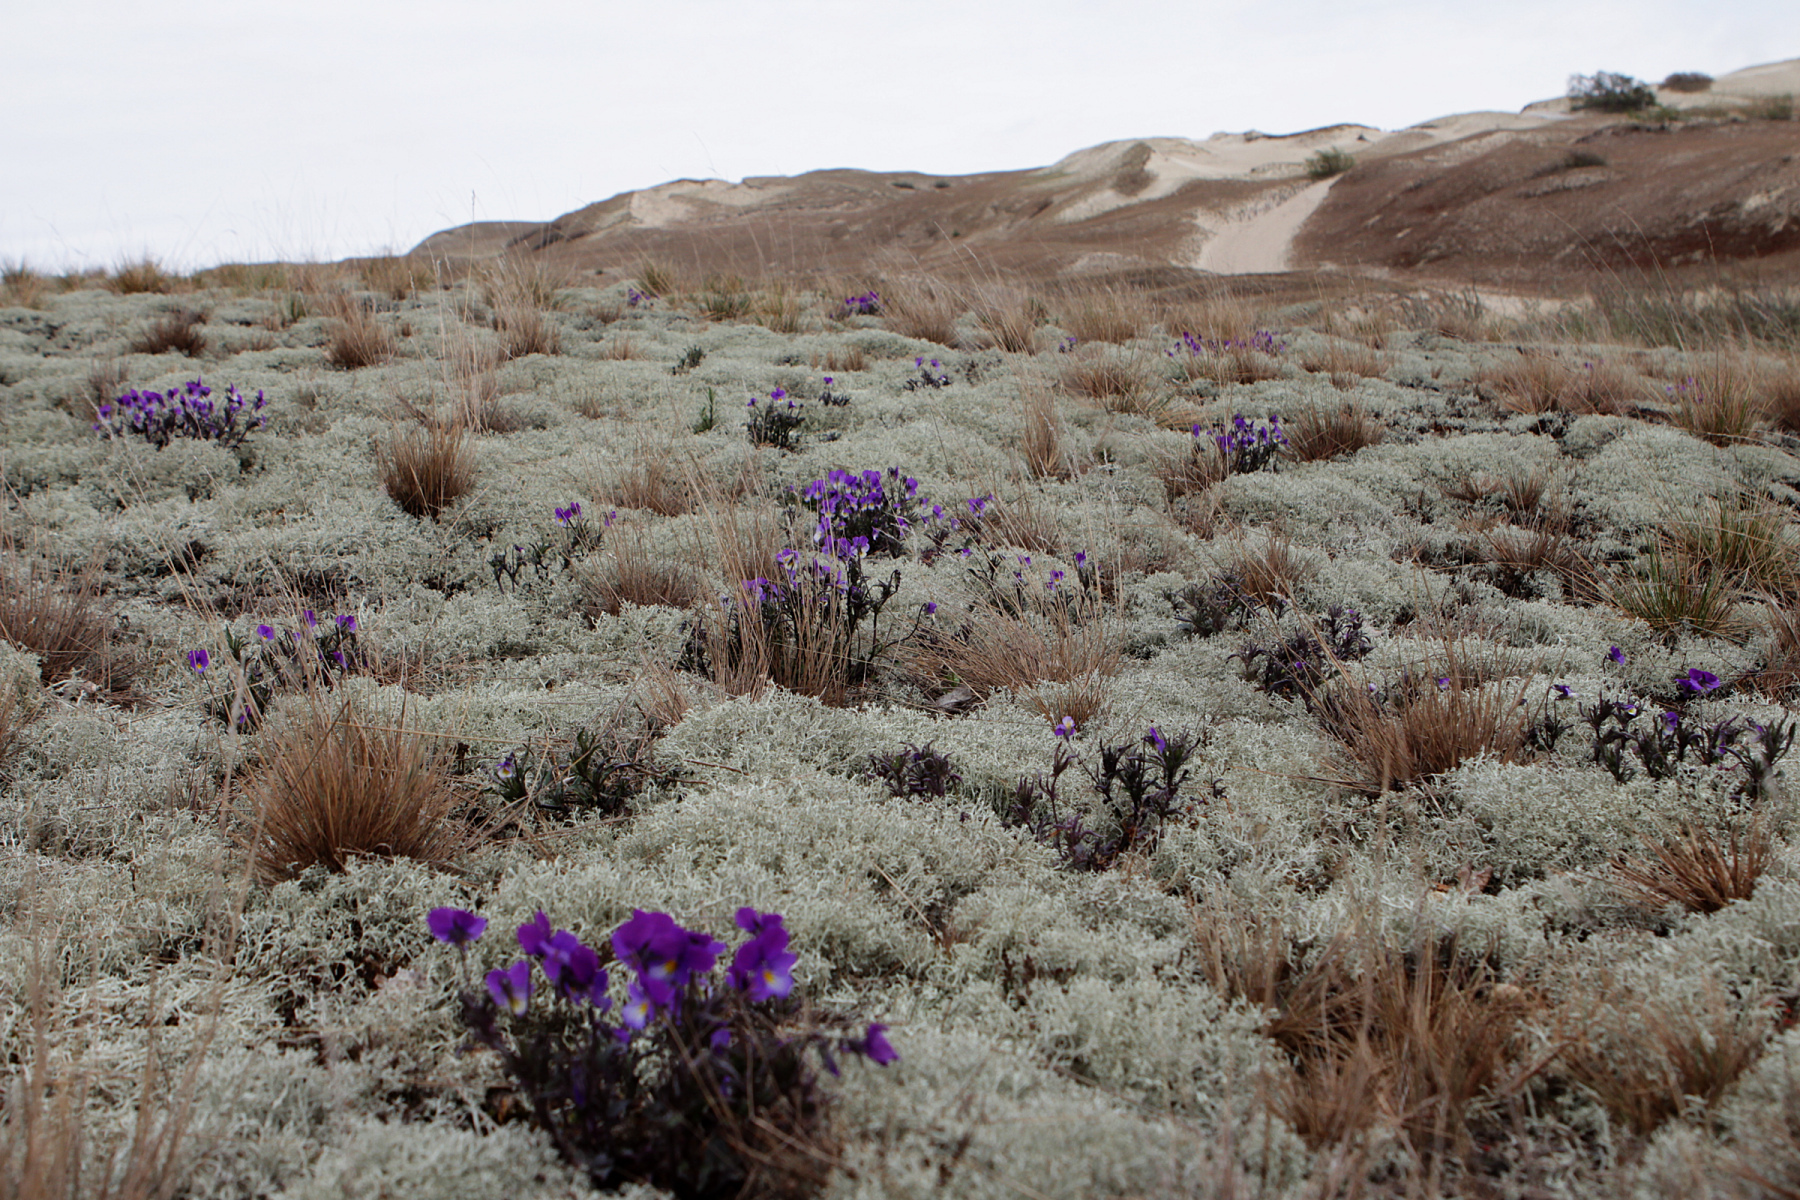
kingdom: Plantae
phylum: Tracheophyta
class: Magnoliopsida
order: Malpighiales
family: Violaceae
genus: Viola
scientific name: Viola tricolor
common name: Pansy
